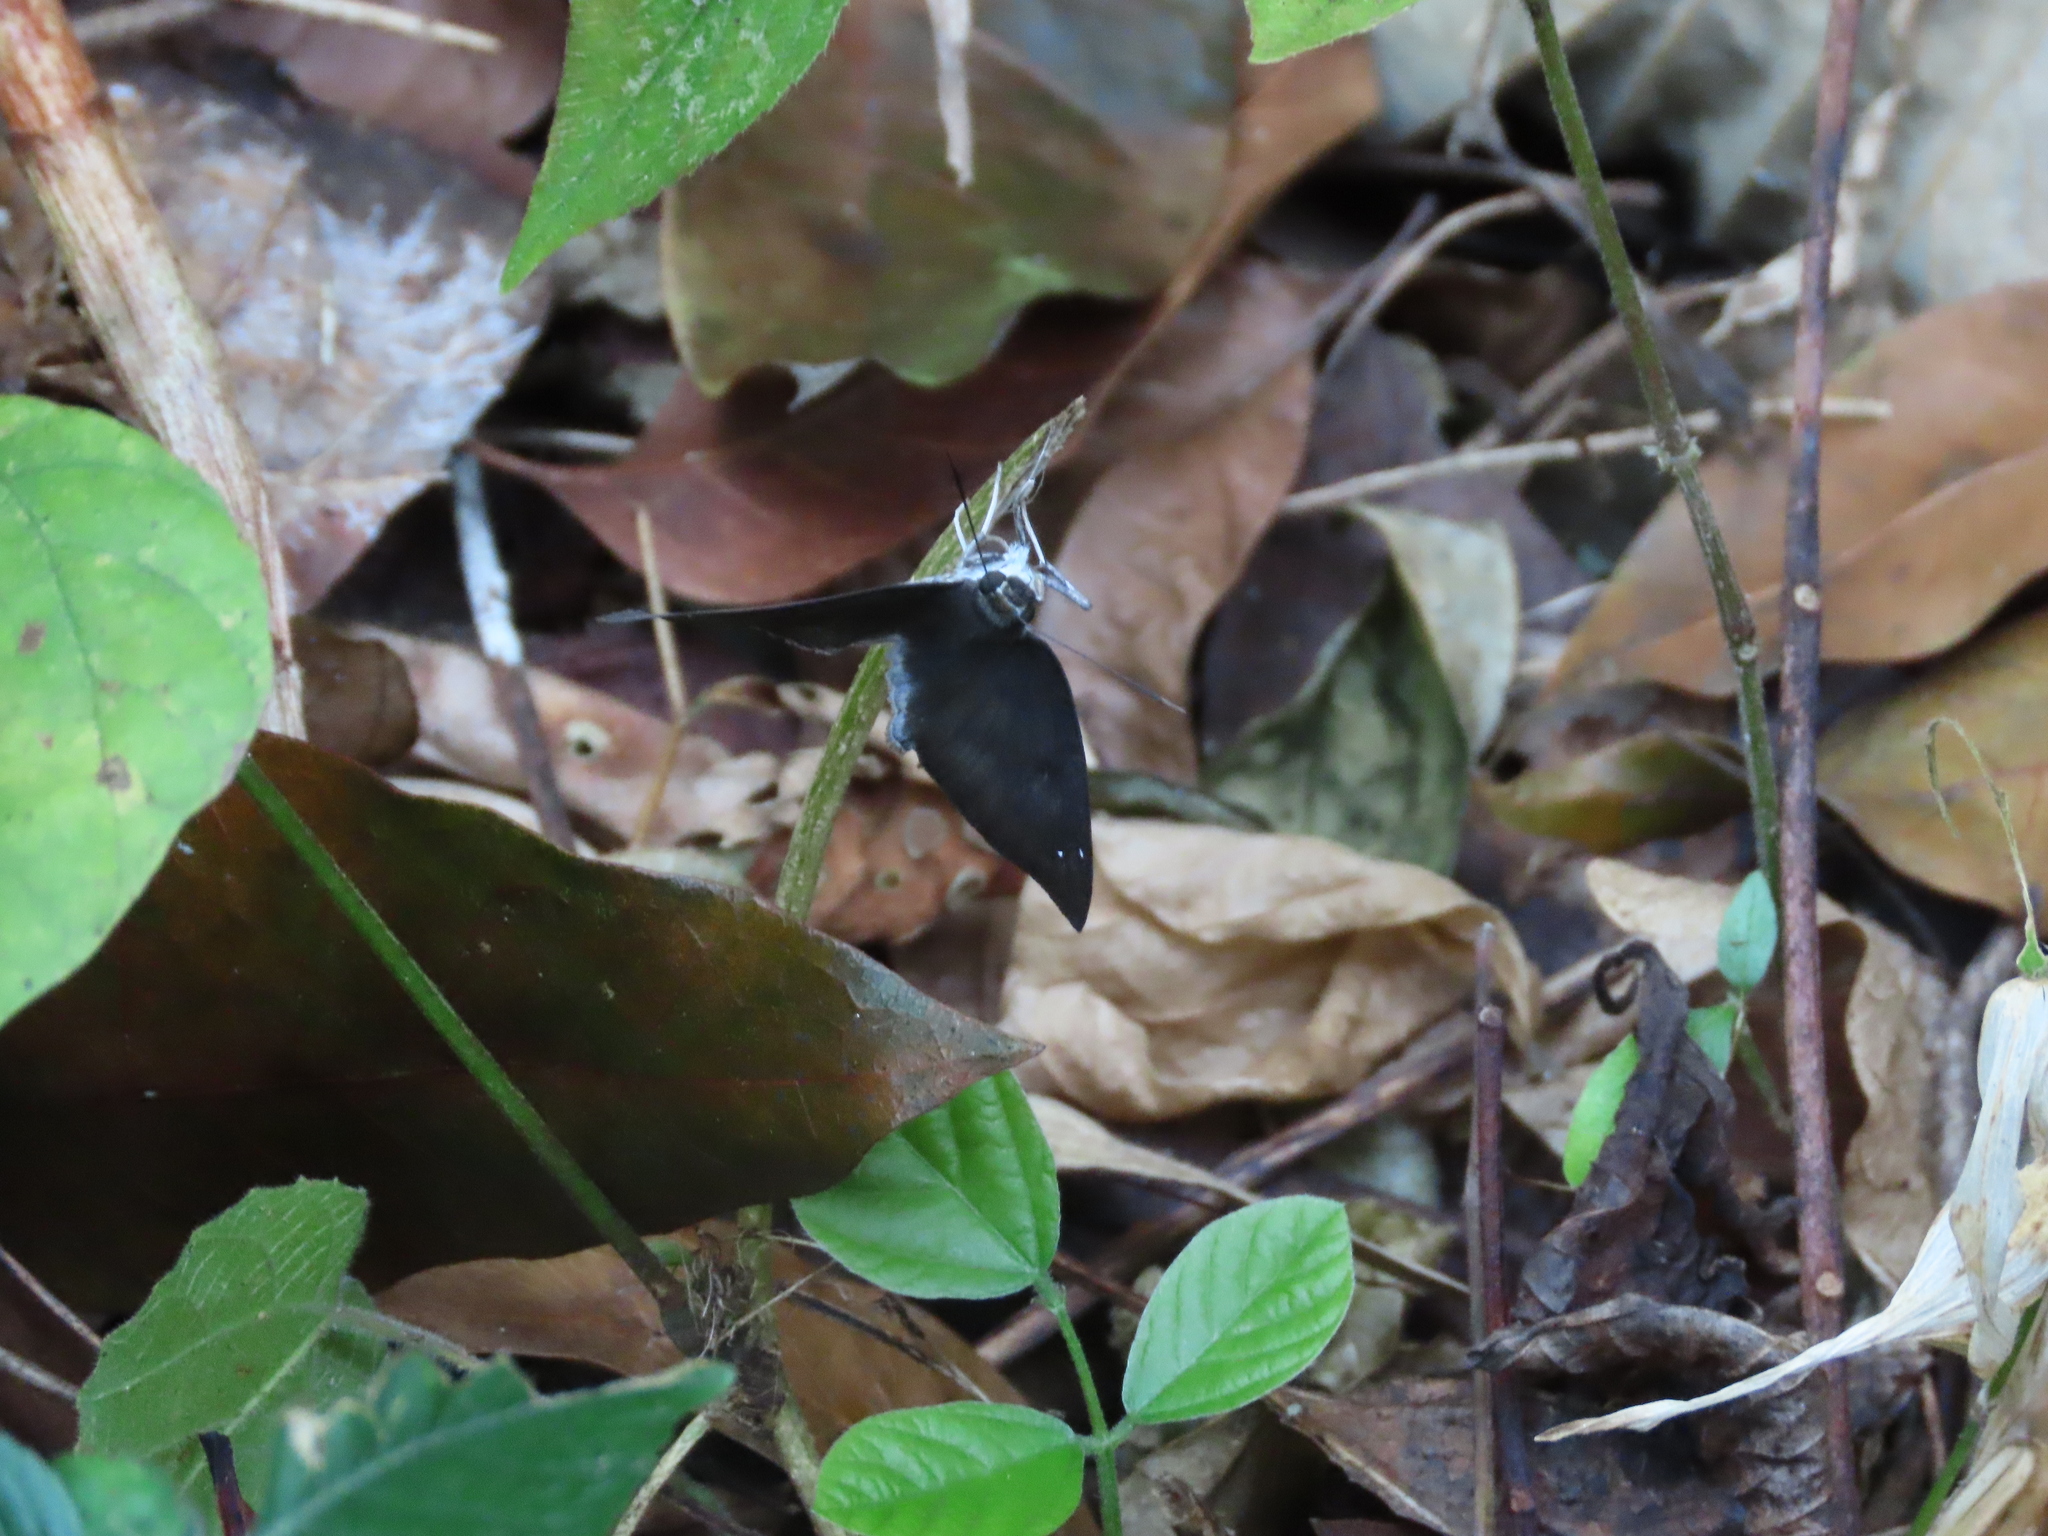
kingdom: Animalia
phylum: Arthropoda
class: Insecta
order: Lepidoptera
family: Hesperiidae
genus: Tagiades
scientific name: Tagiades gana
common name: Suffused snow flat
